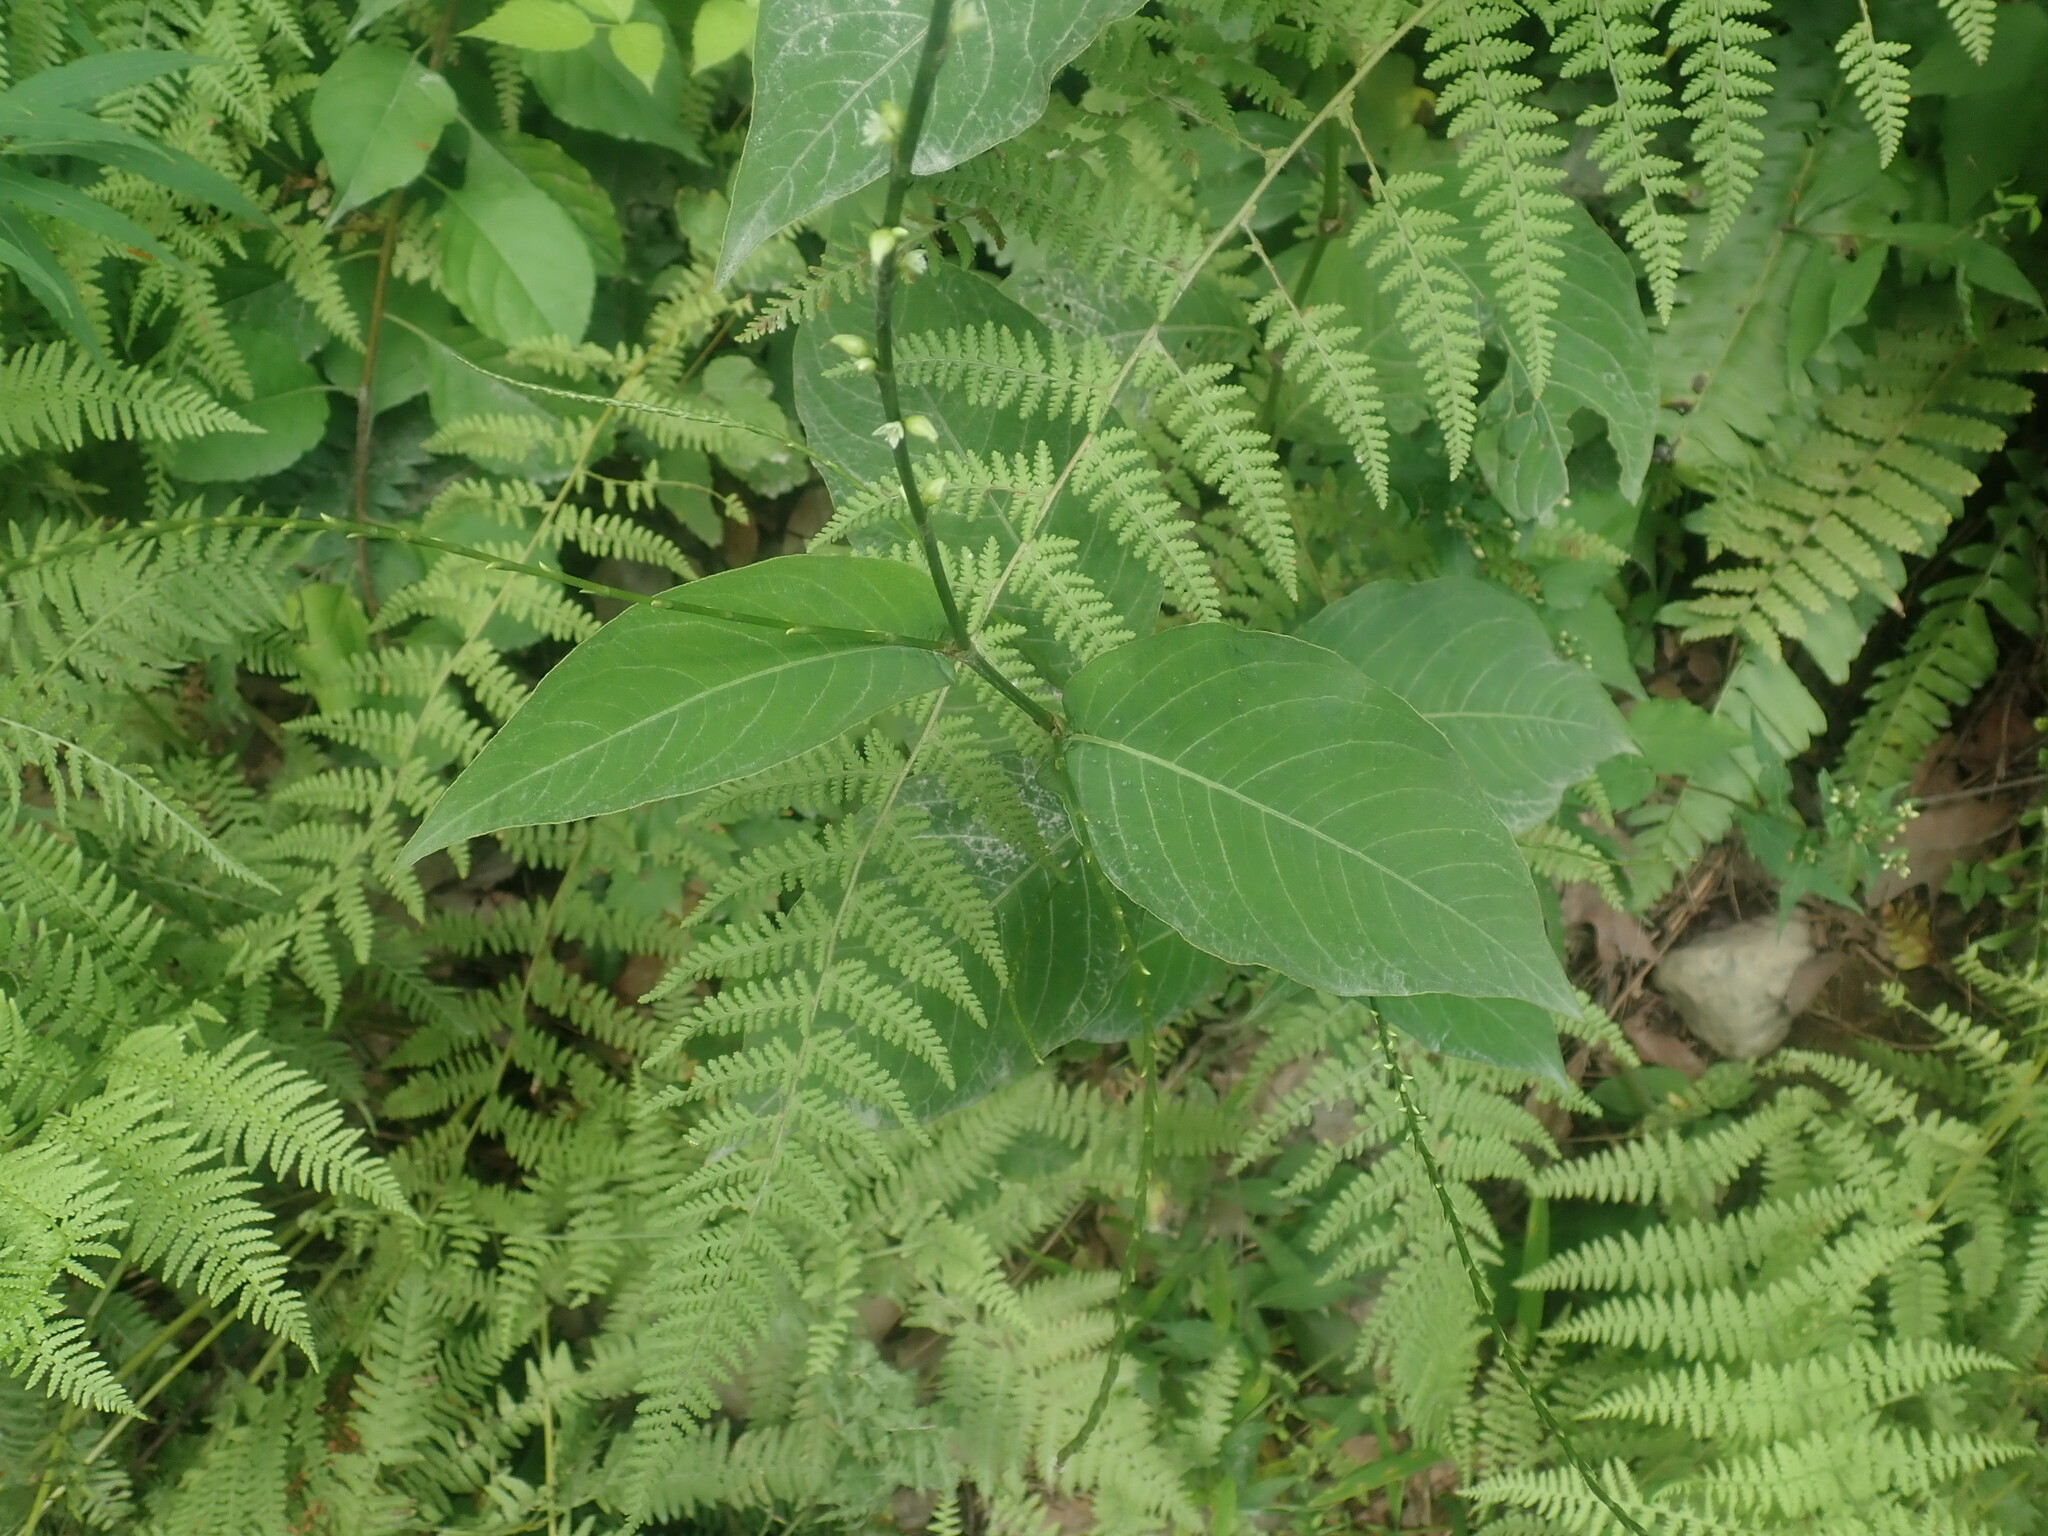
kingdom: Plantae
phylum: Tracheophyta
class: Magnoliopsida
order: Caryophyllales
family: Polygonaceae
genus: Persicaria
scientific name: Persicaria virginiana
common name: Jumpseed
